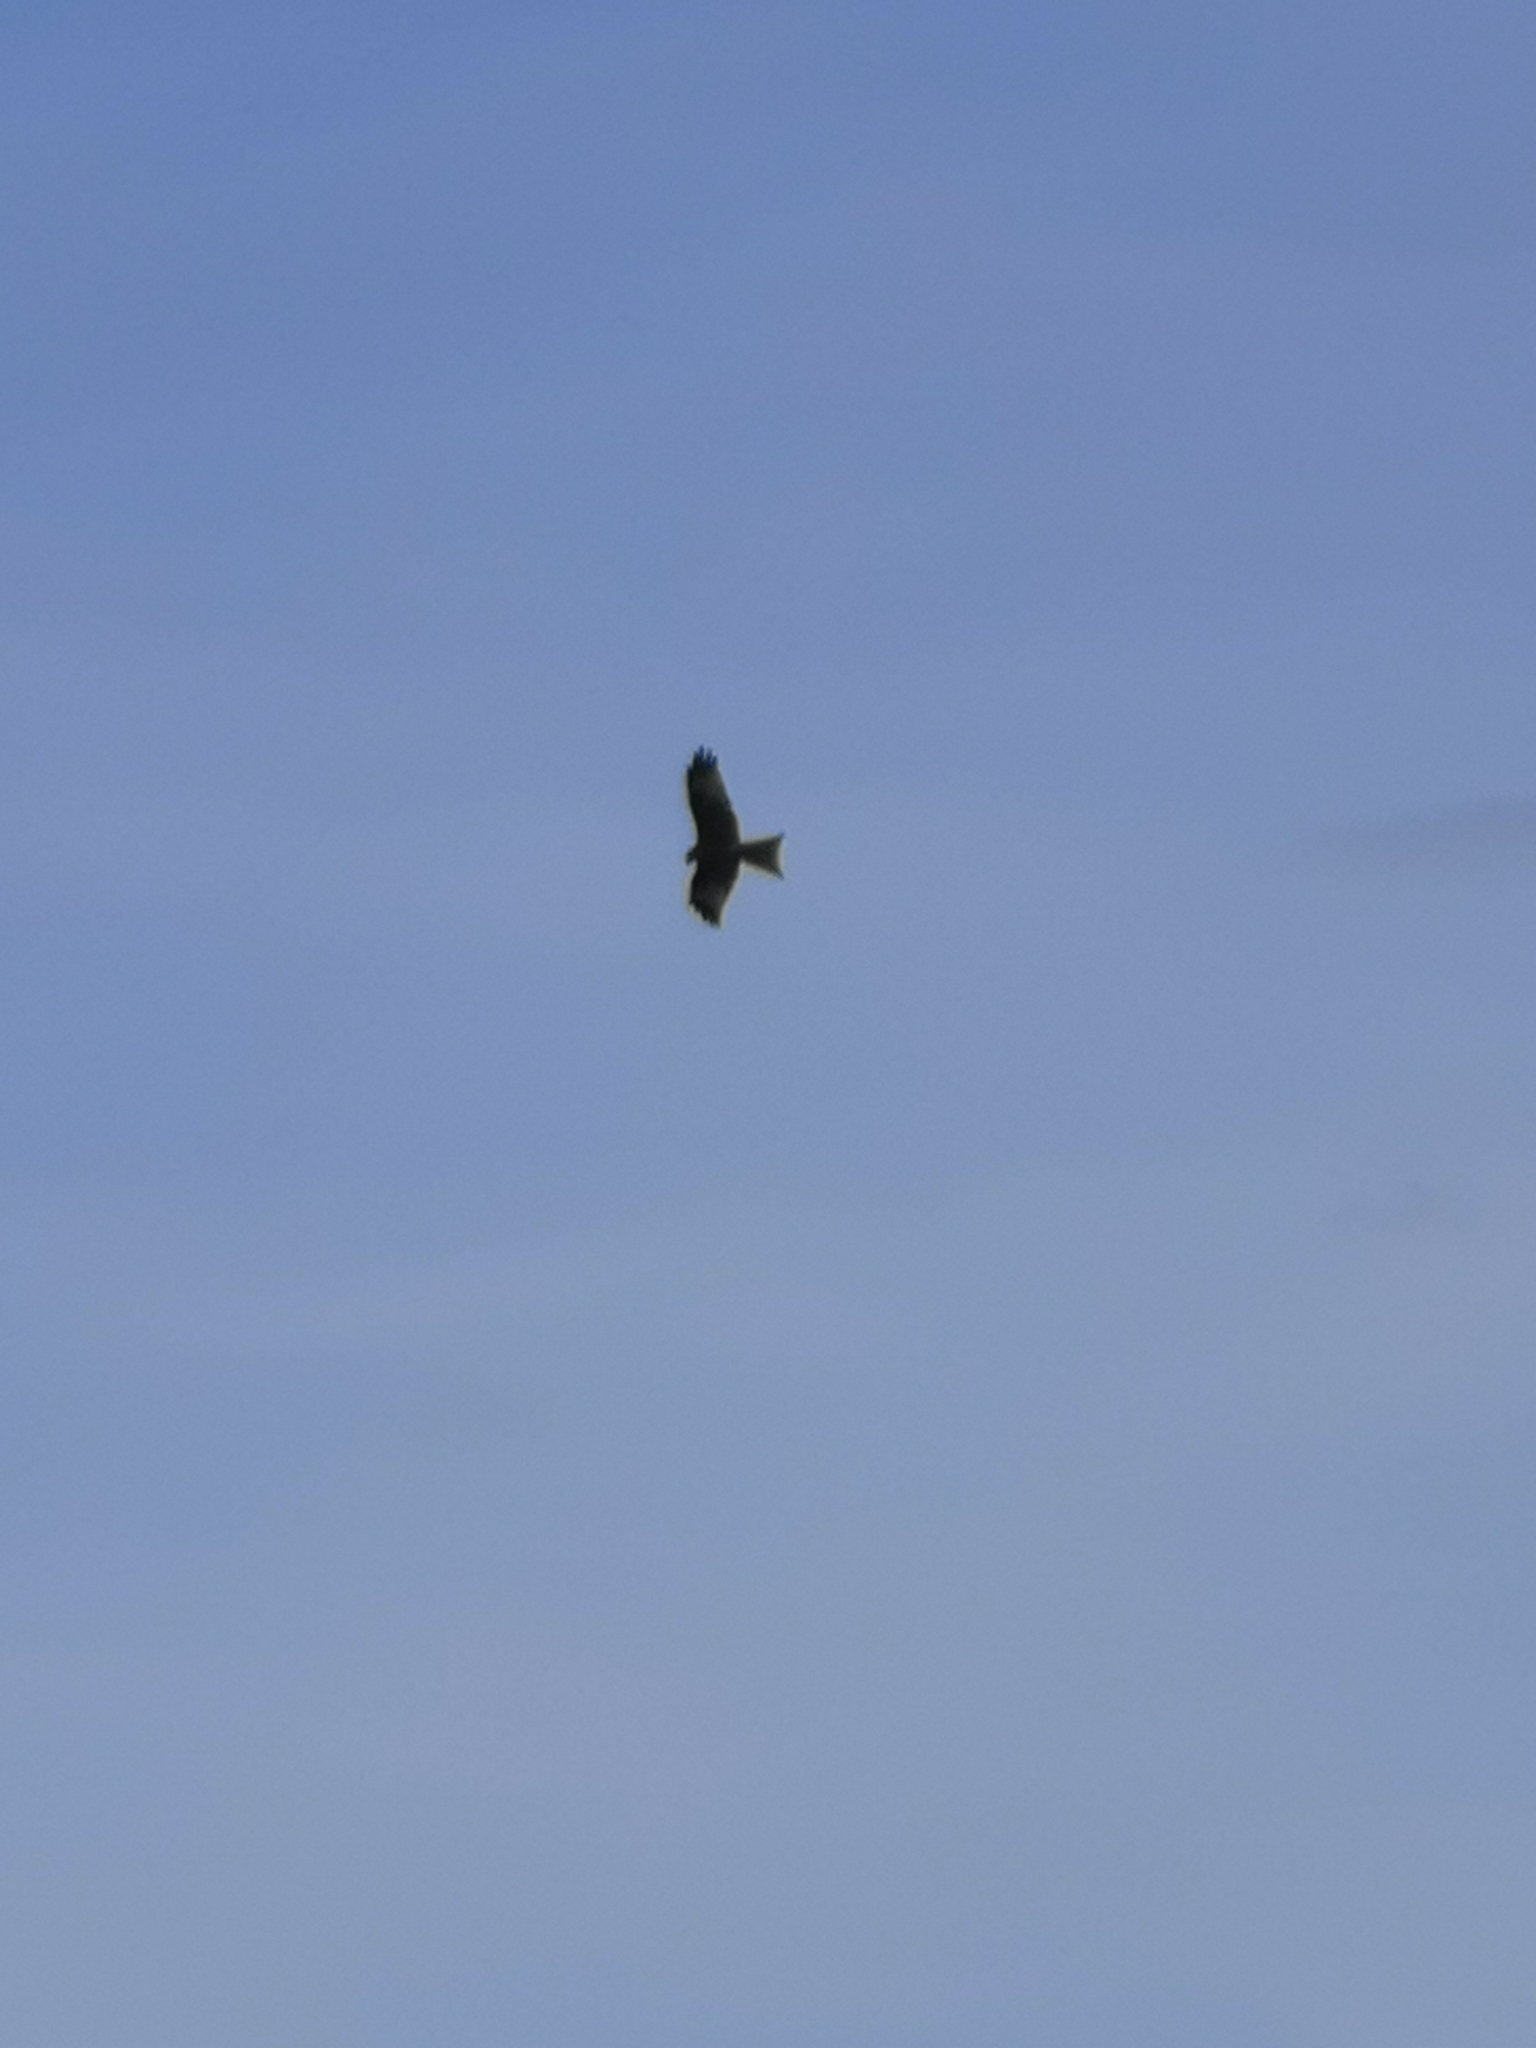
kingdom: Animalia
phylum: Chordata
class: Aves
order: Accipitriformes
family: Accipitridae
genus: Milvus
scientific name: Milvus migrans
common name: Black kite
